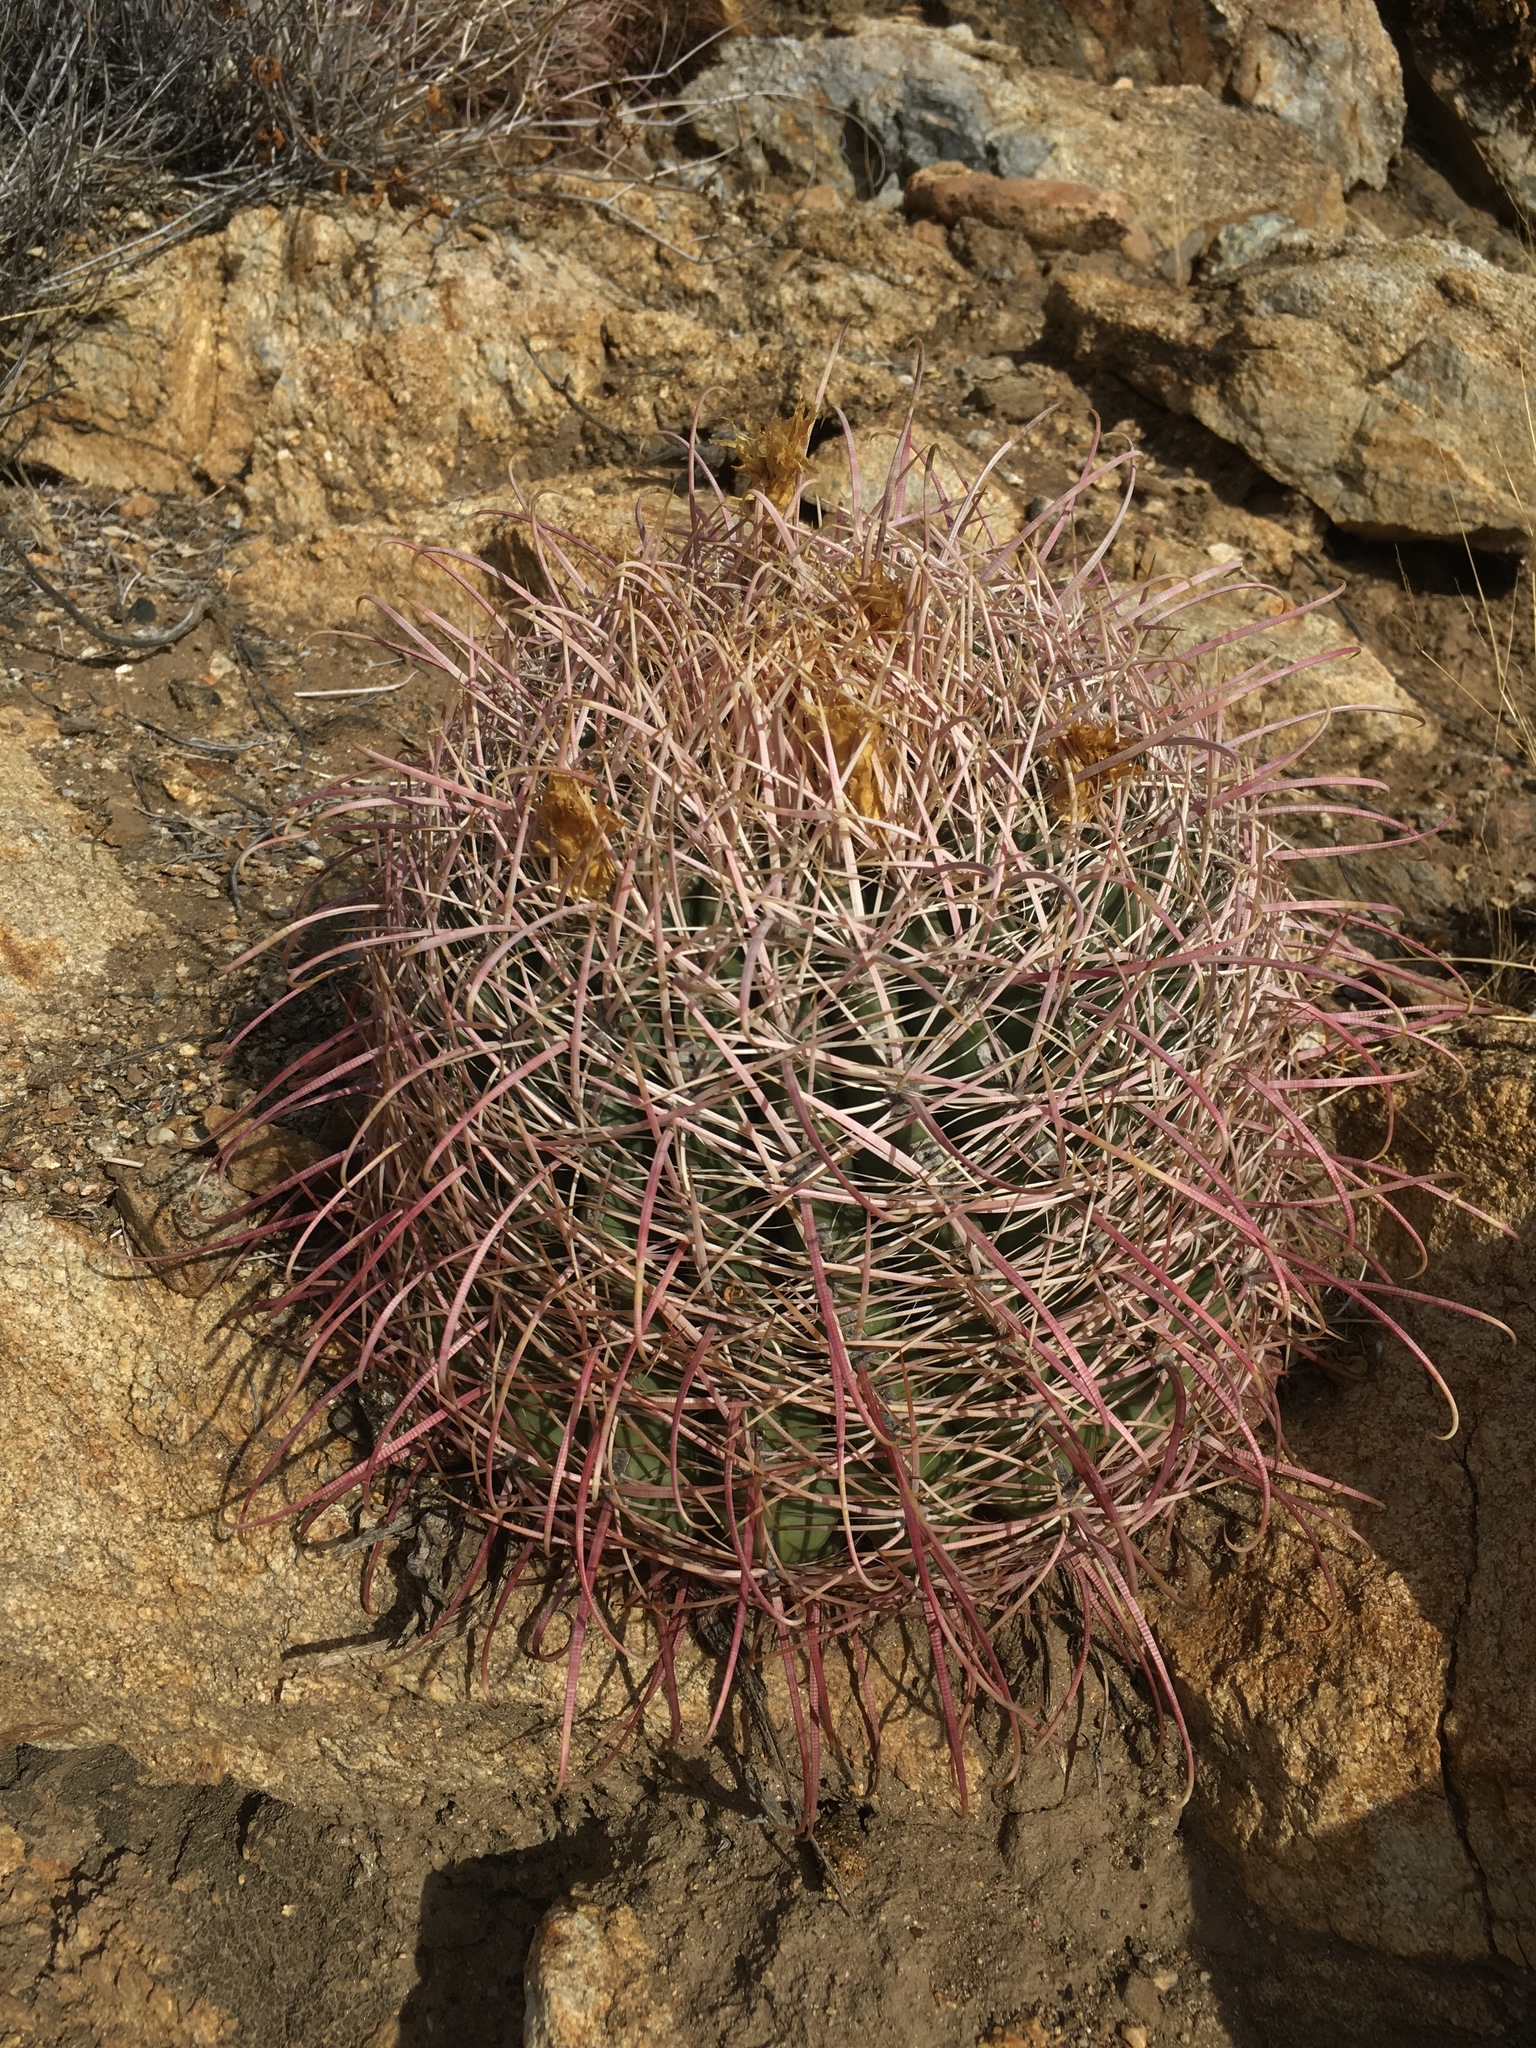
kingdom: Plantae
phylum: Tracheophyta
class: Magnoliopsida
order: Caryophyllales
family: Cactaceae
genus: Ferocactus
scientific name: Ferocactus cylindraceus
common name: California barrel cactus
